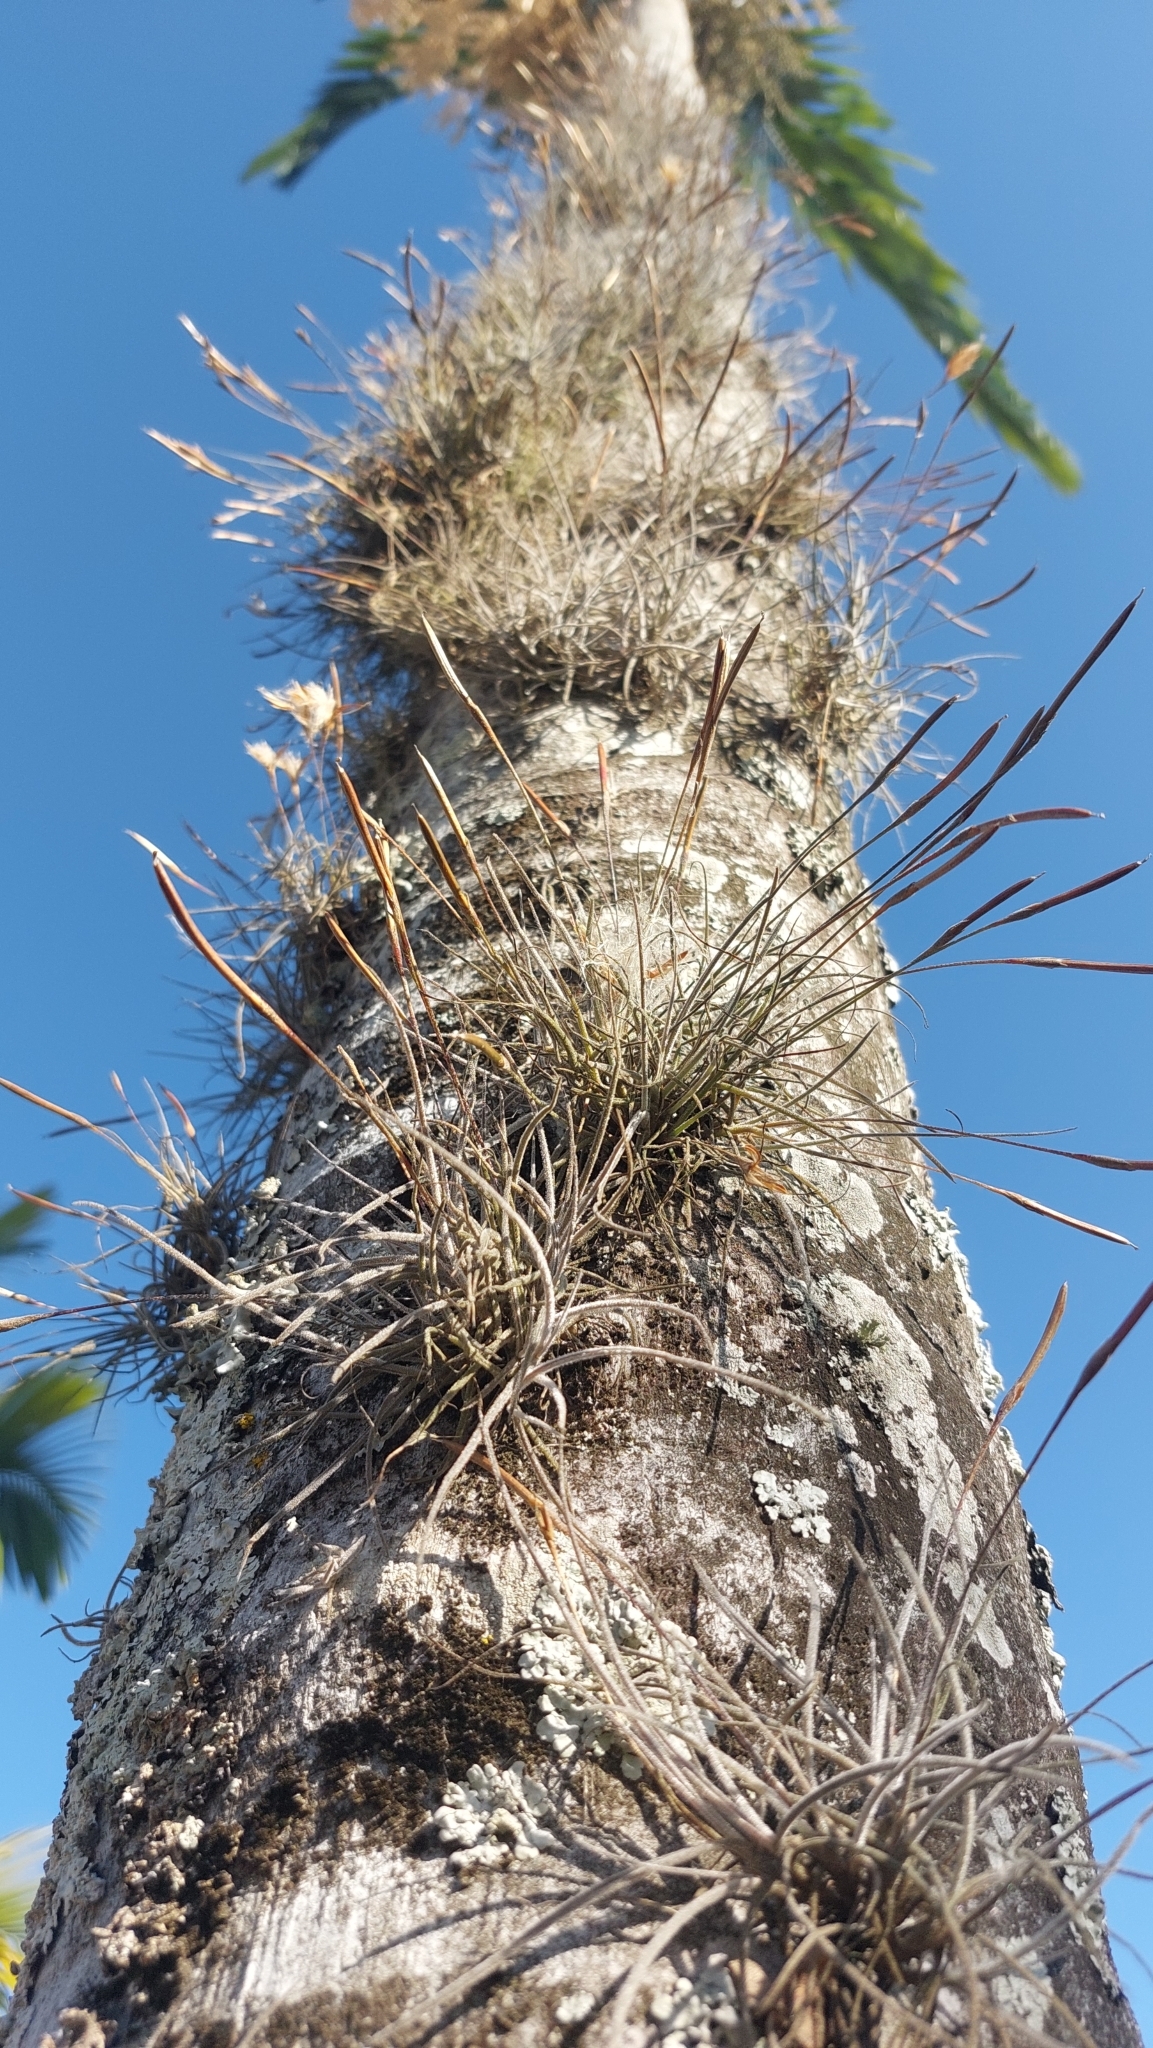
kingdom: Plantae
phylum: Tracheophyta
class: Liliopsida
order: Poales
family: Bromeliaceae
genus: Tillandsia
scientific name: Tillandsia recurvata
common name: Small ballmoss
